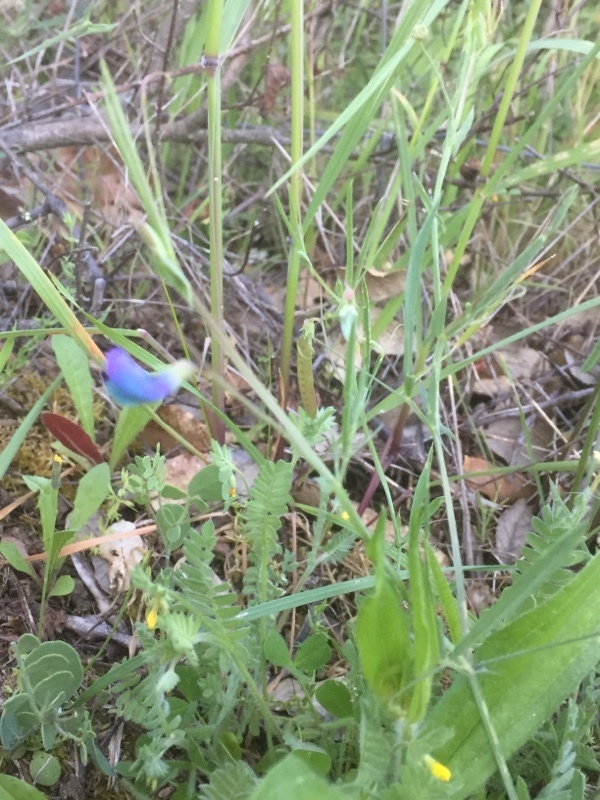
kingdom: Plantae
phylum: Tracheophyta
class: Magnoliopsida
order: Fabales
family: Fabaceae
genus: Lathyrus
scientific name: Lathyrus angulatus
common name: Angular pea
